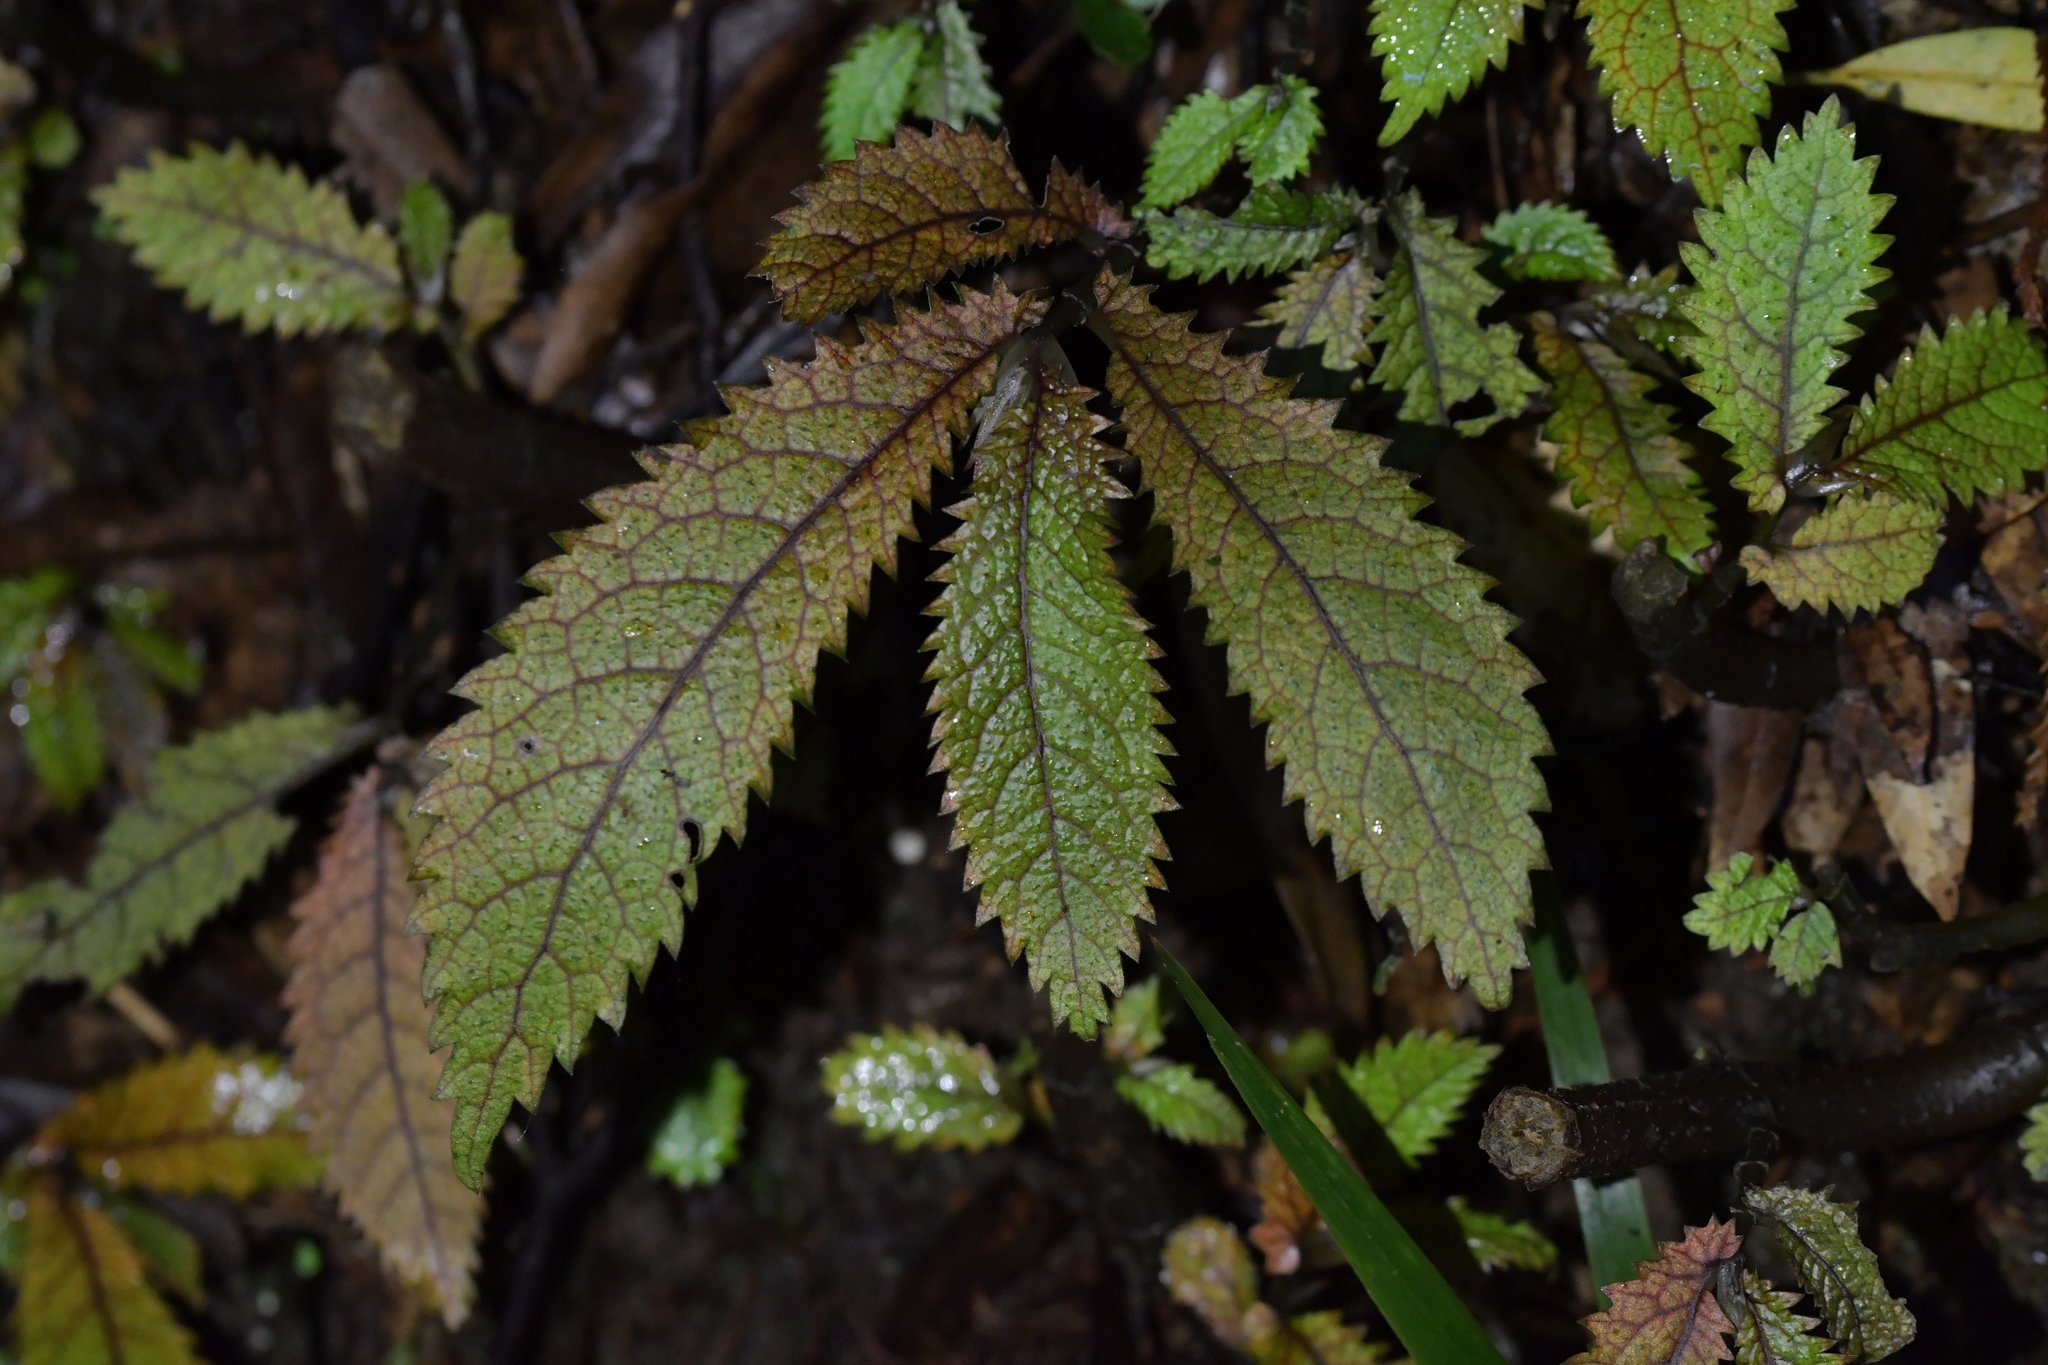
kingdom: Plantae
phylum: Tracheophyta
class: Magnoliopsida
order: Rosales
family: Urticaceae
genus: Elatostema
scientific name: Elatostema rugosum
